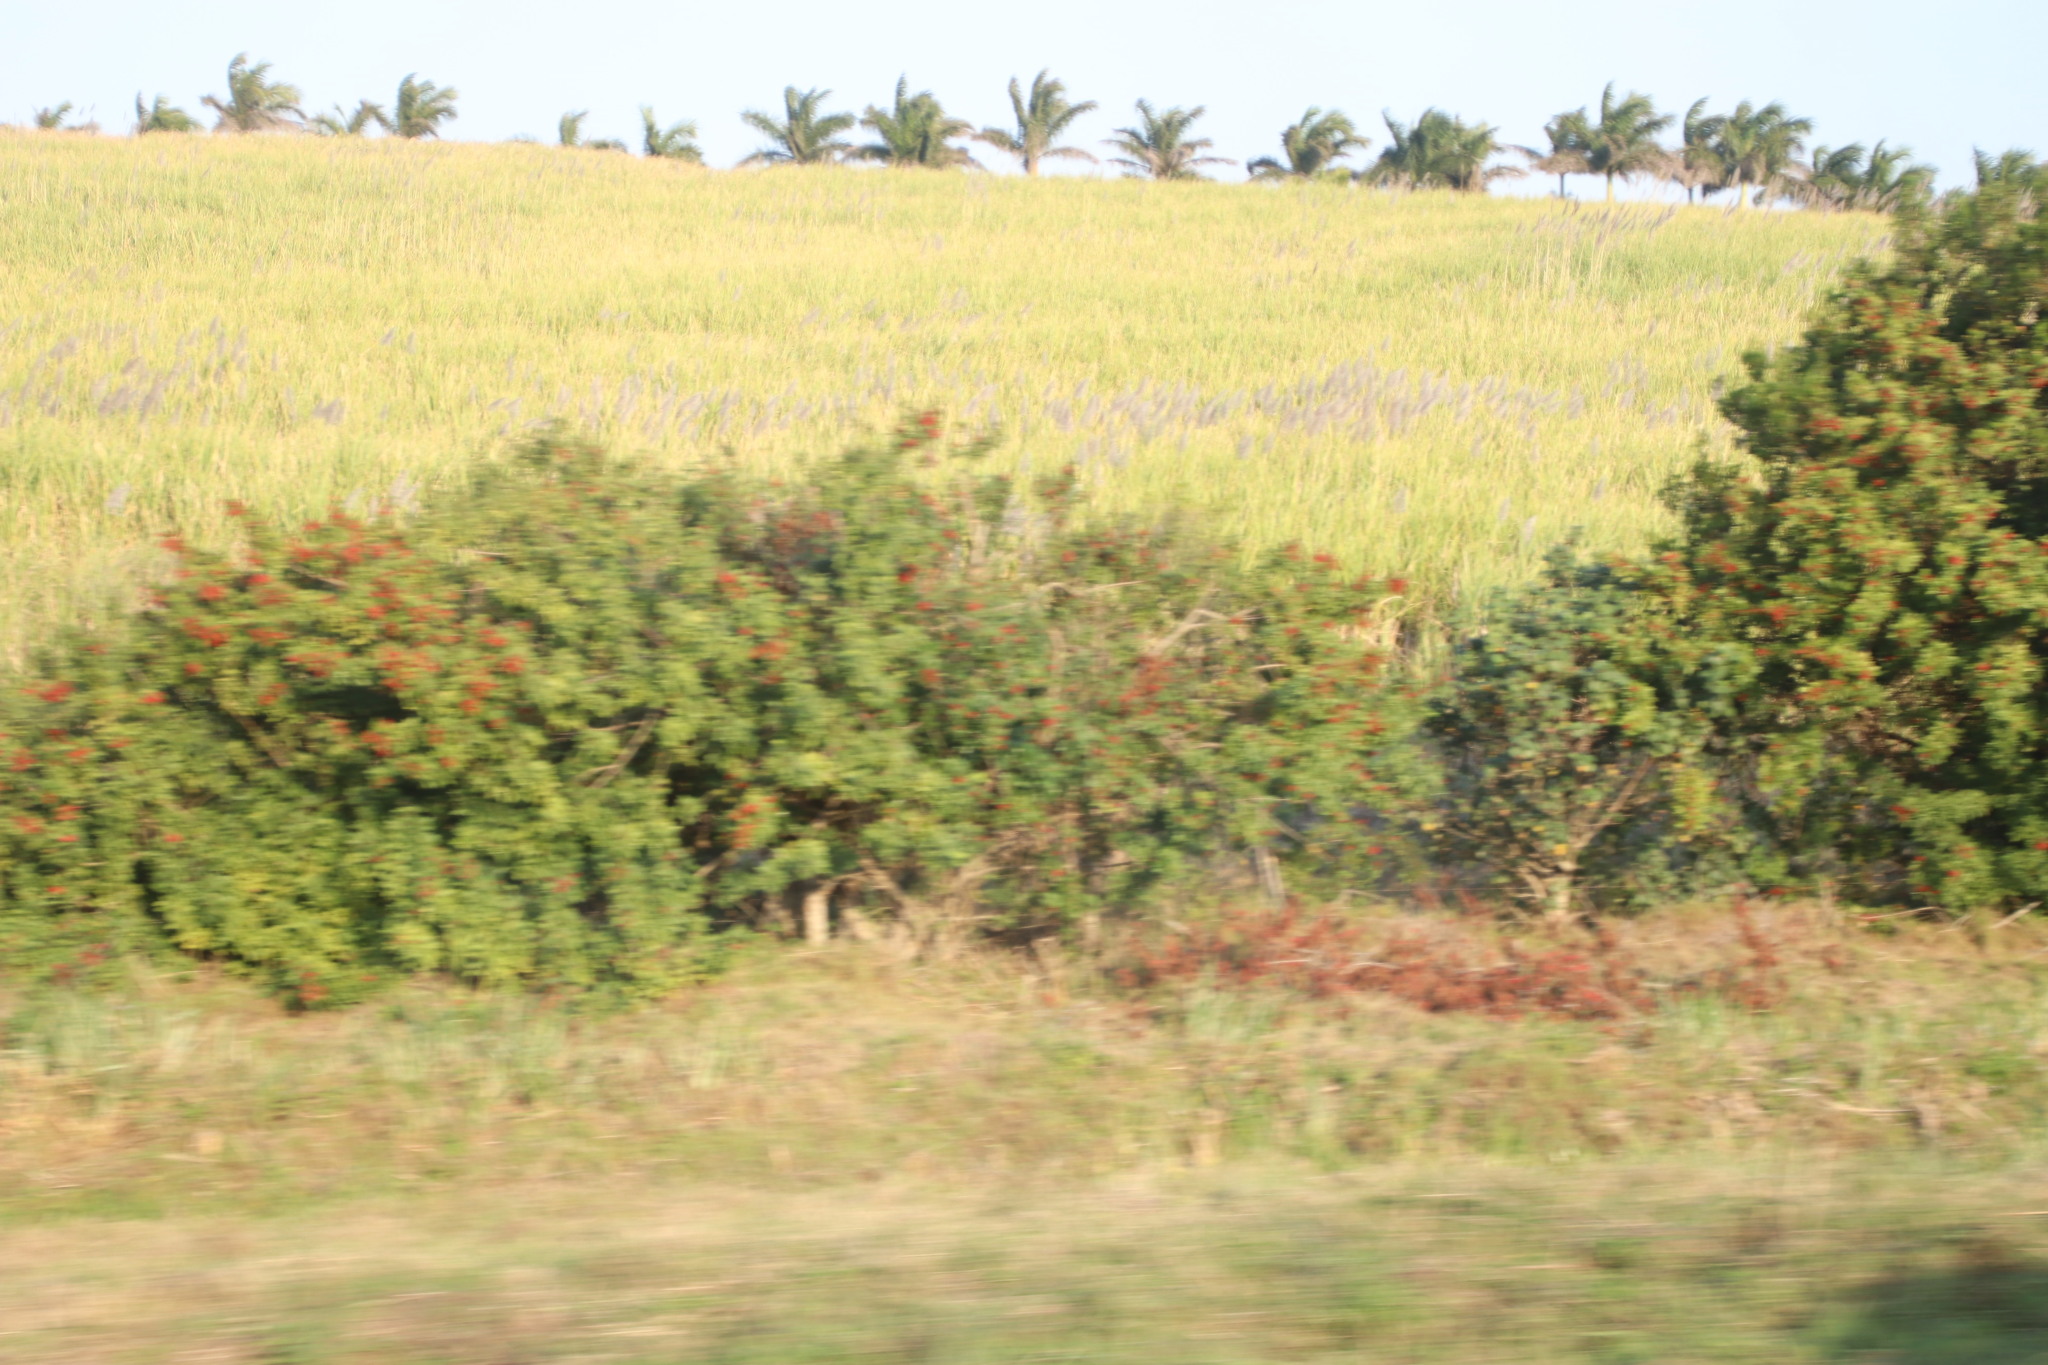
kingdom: Plantae
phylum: Tracheophyta
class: Magnoliopsida
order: Sapindales
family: Anacardiaceae
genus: Schinus
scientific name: Schinus terebinthifolia
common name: Brazilian peppertree
